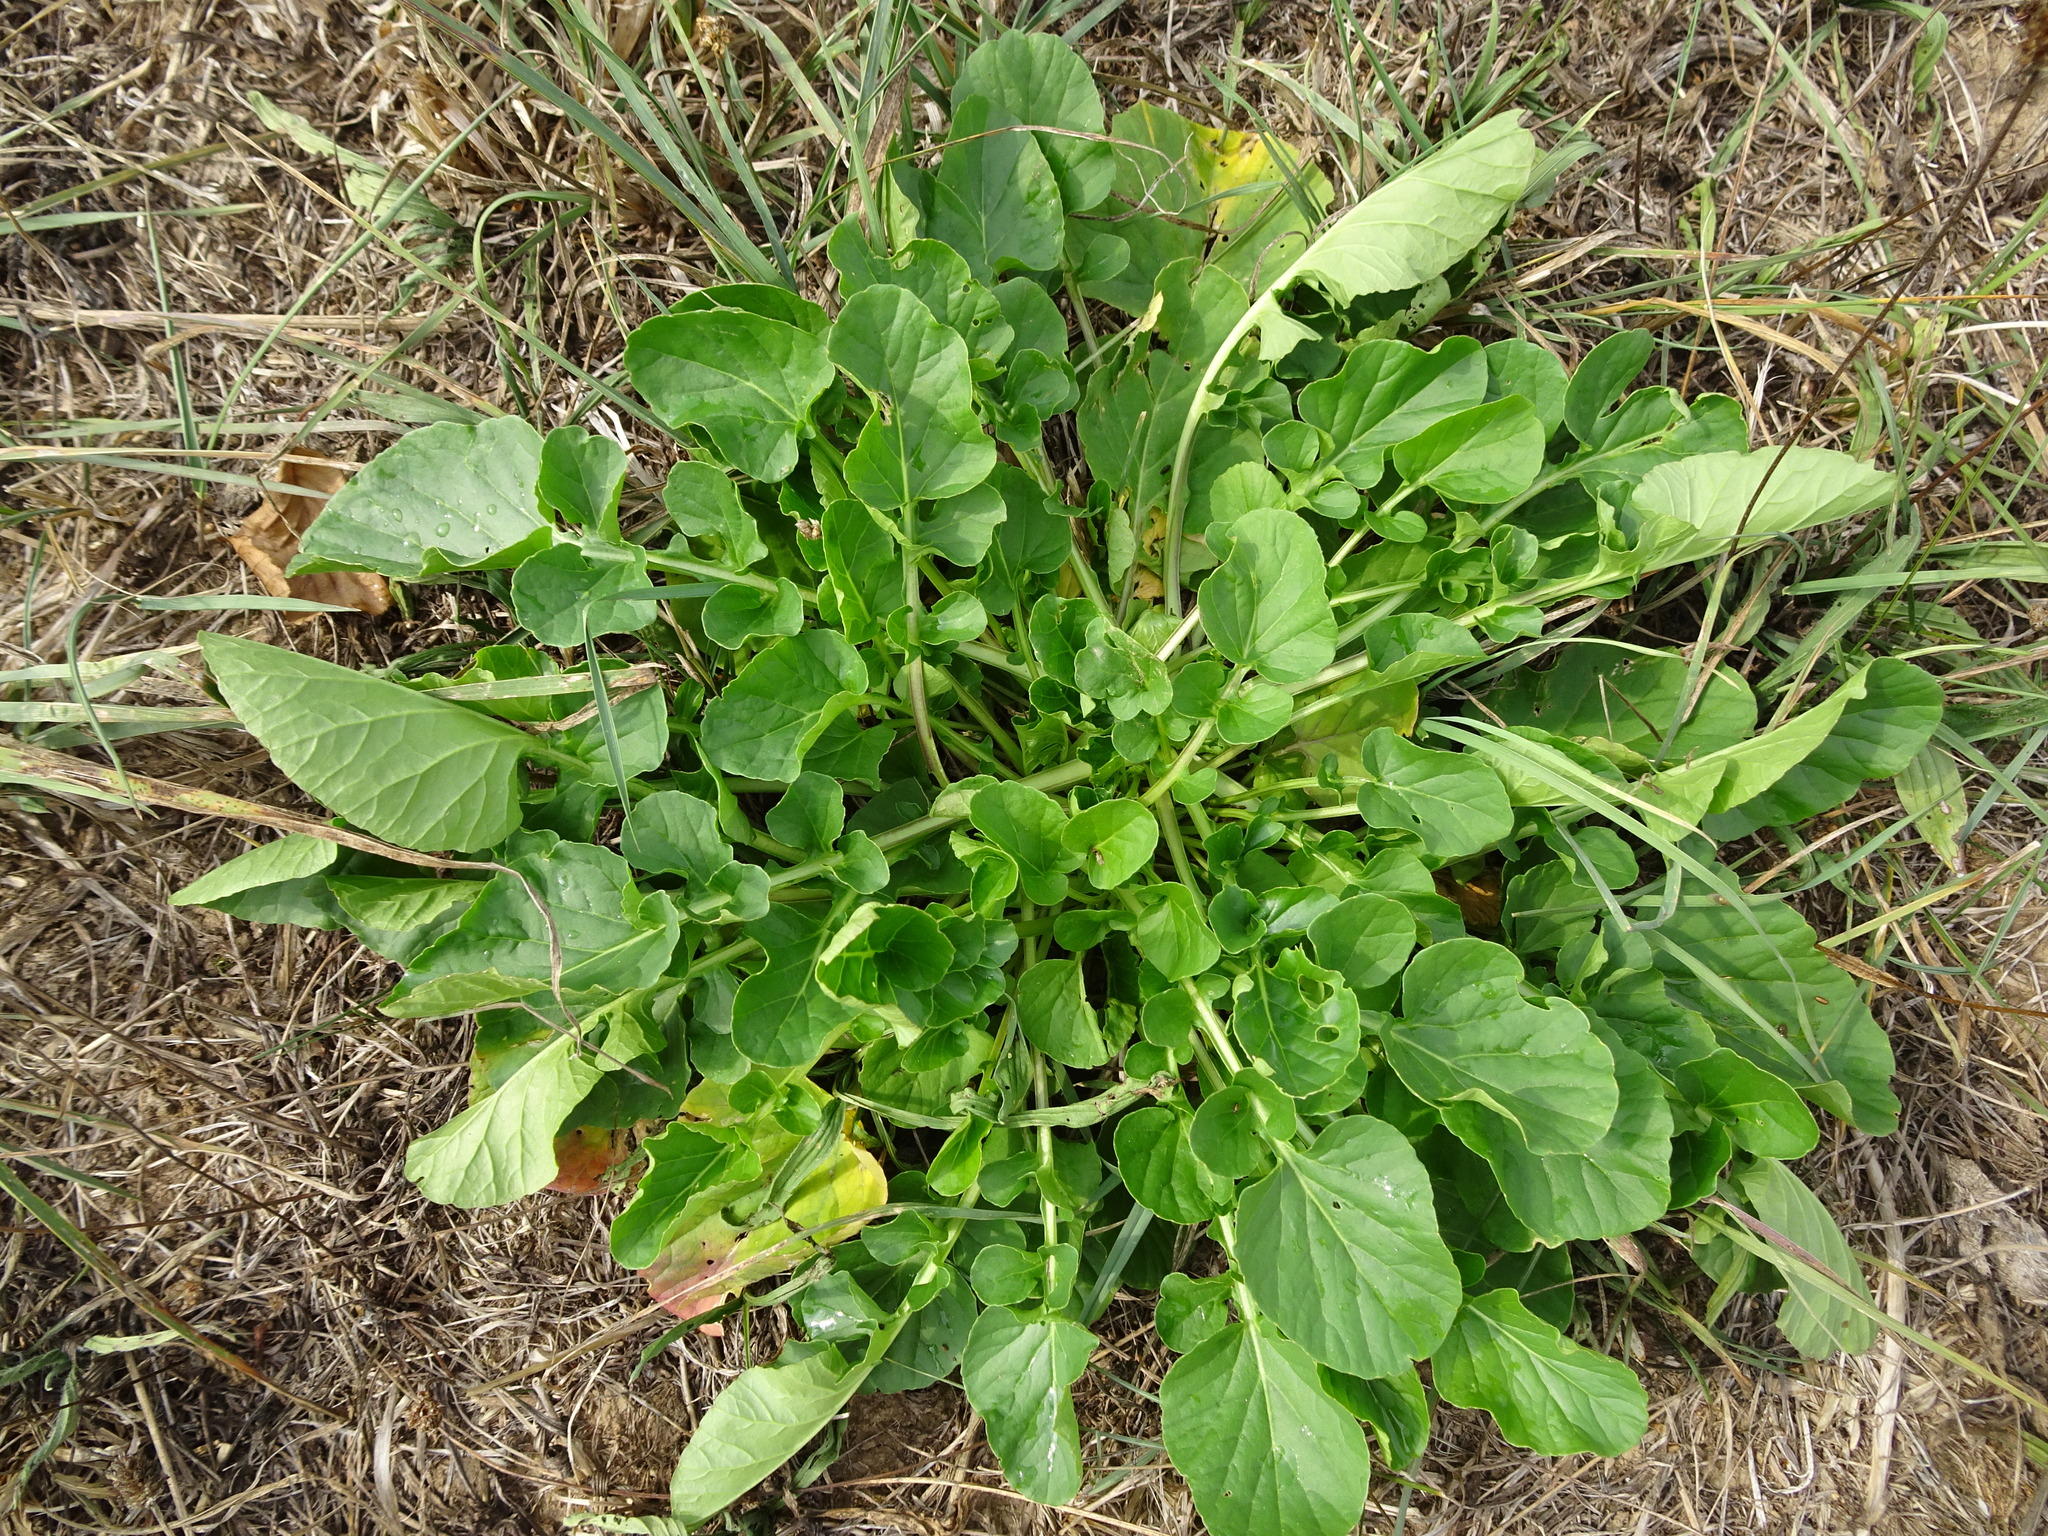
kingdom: Plantae
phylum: Tracheophyta
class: Magnoliopsida
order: Brassicales
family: Brassicaceae
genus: Barbarea
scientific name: Barbarea vulgaris
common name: Cressy-greens
